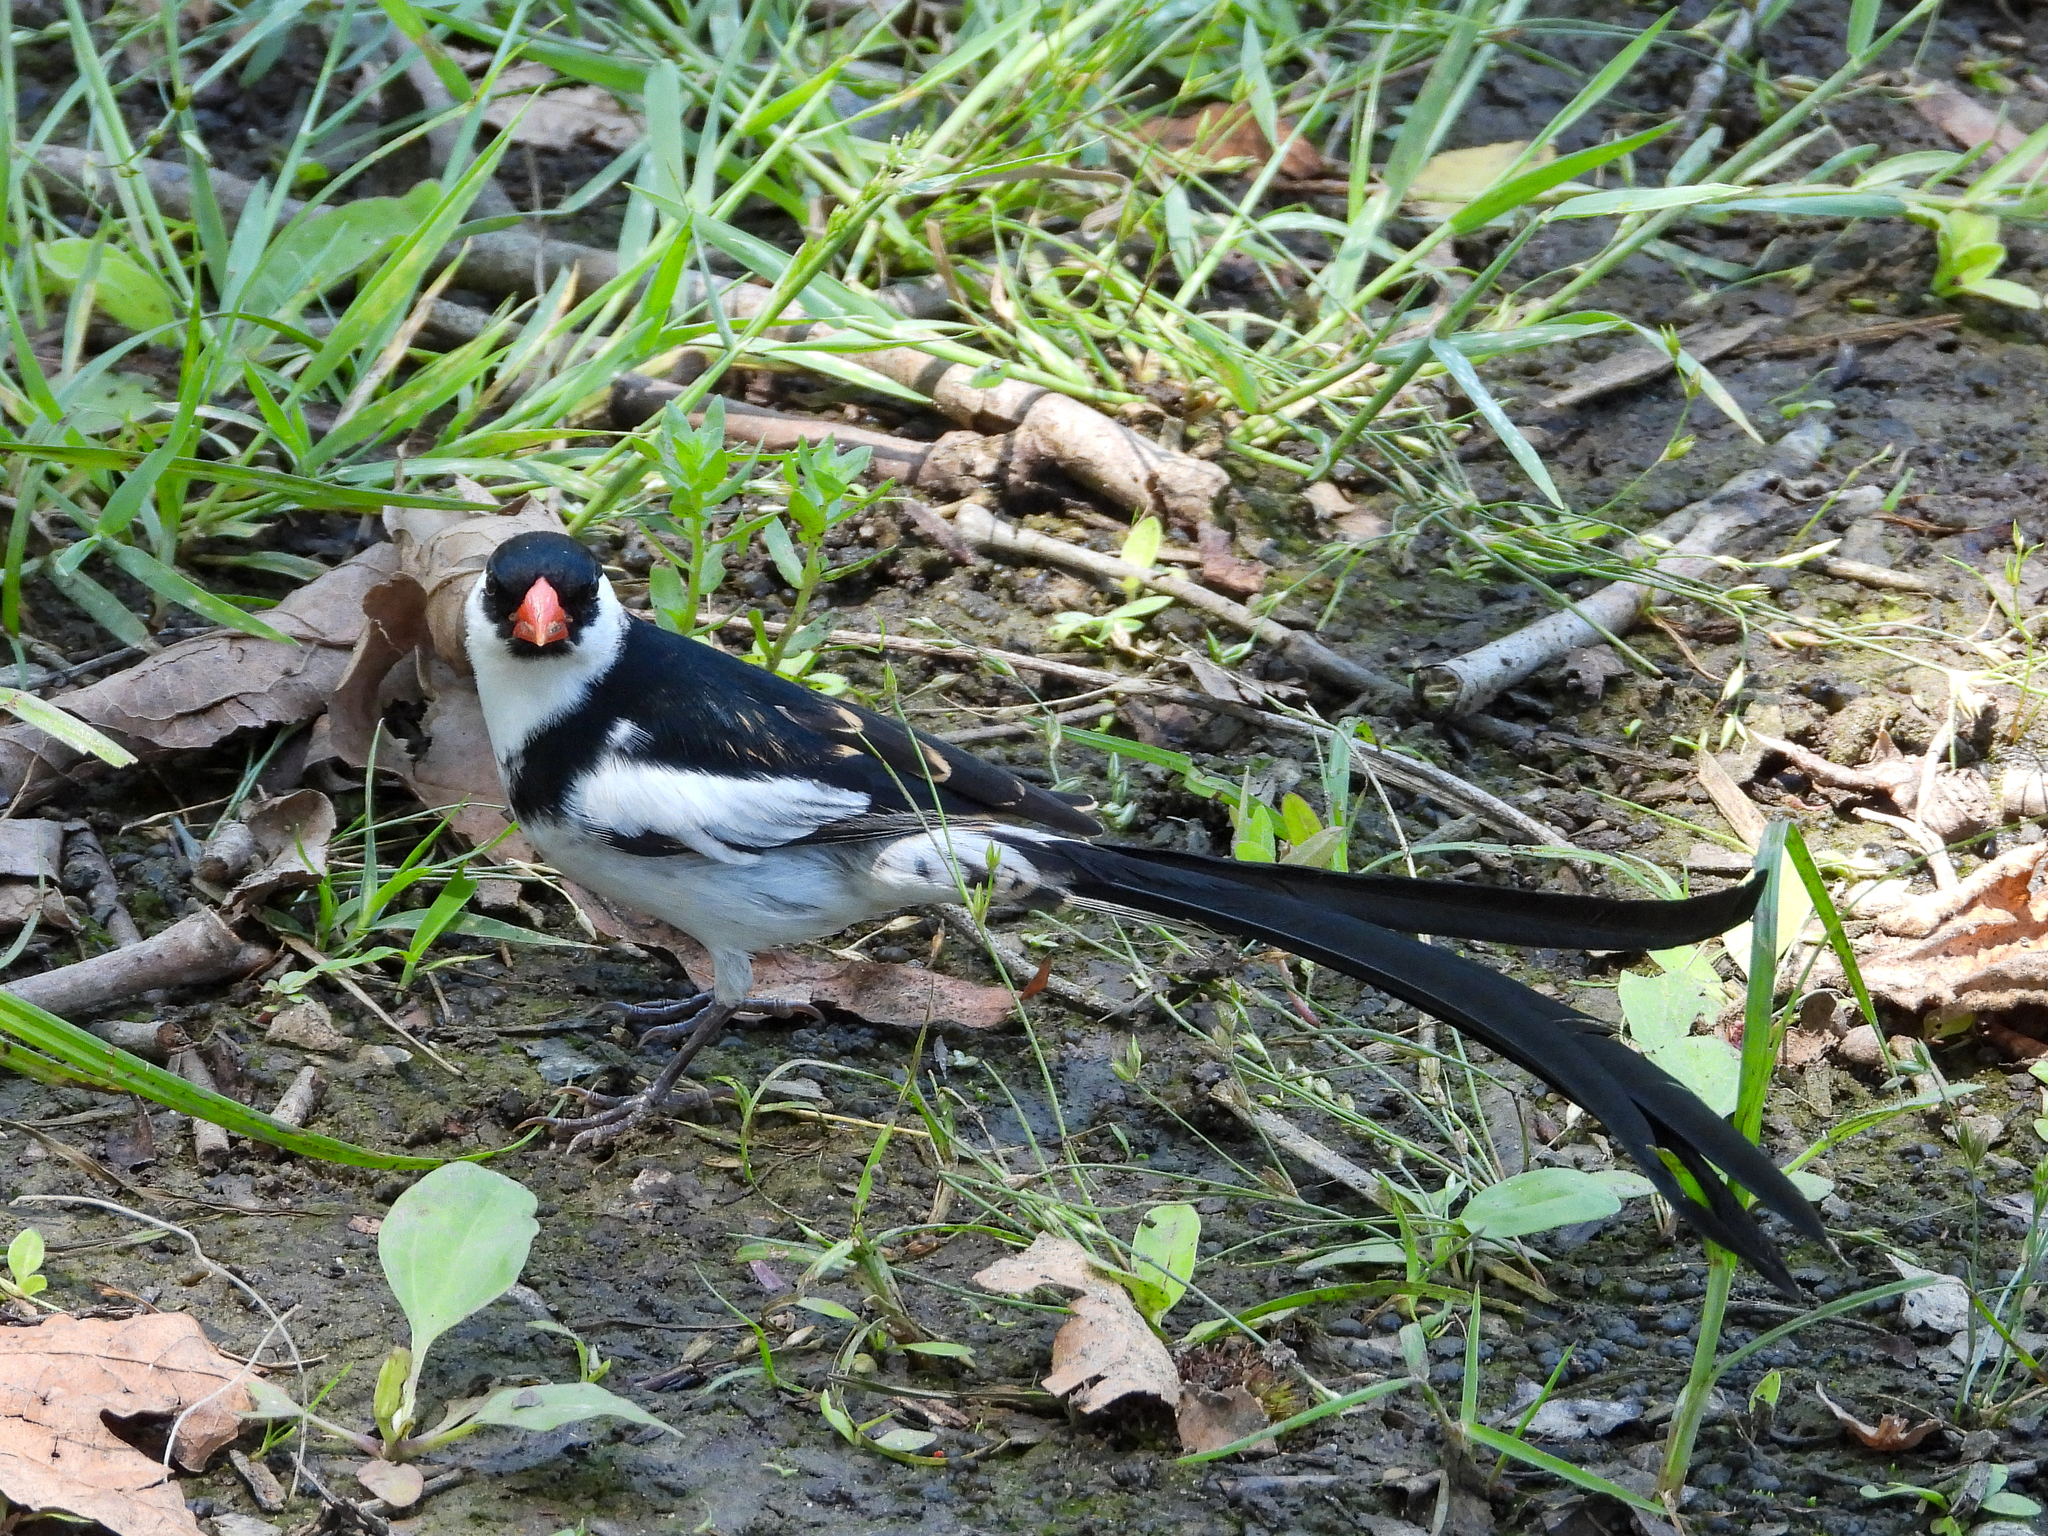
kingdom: Animalia
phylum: Chordata
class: Aves
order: Passeriformes
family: Viduidae
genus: Vidua
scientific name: Vidua macroura
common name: Pin-tailed whydah
